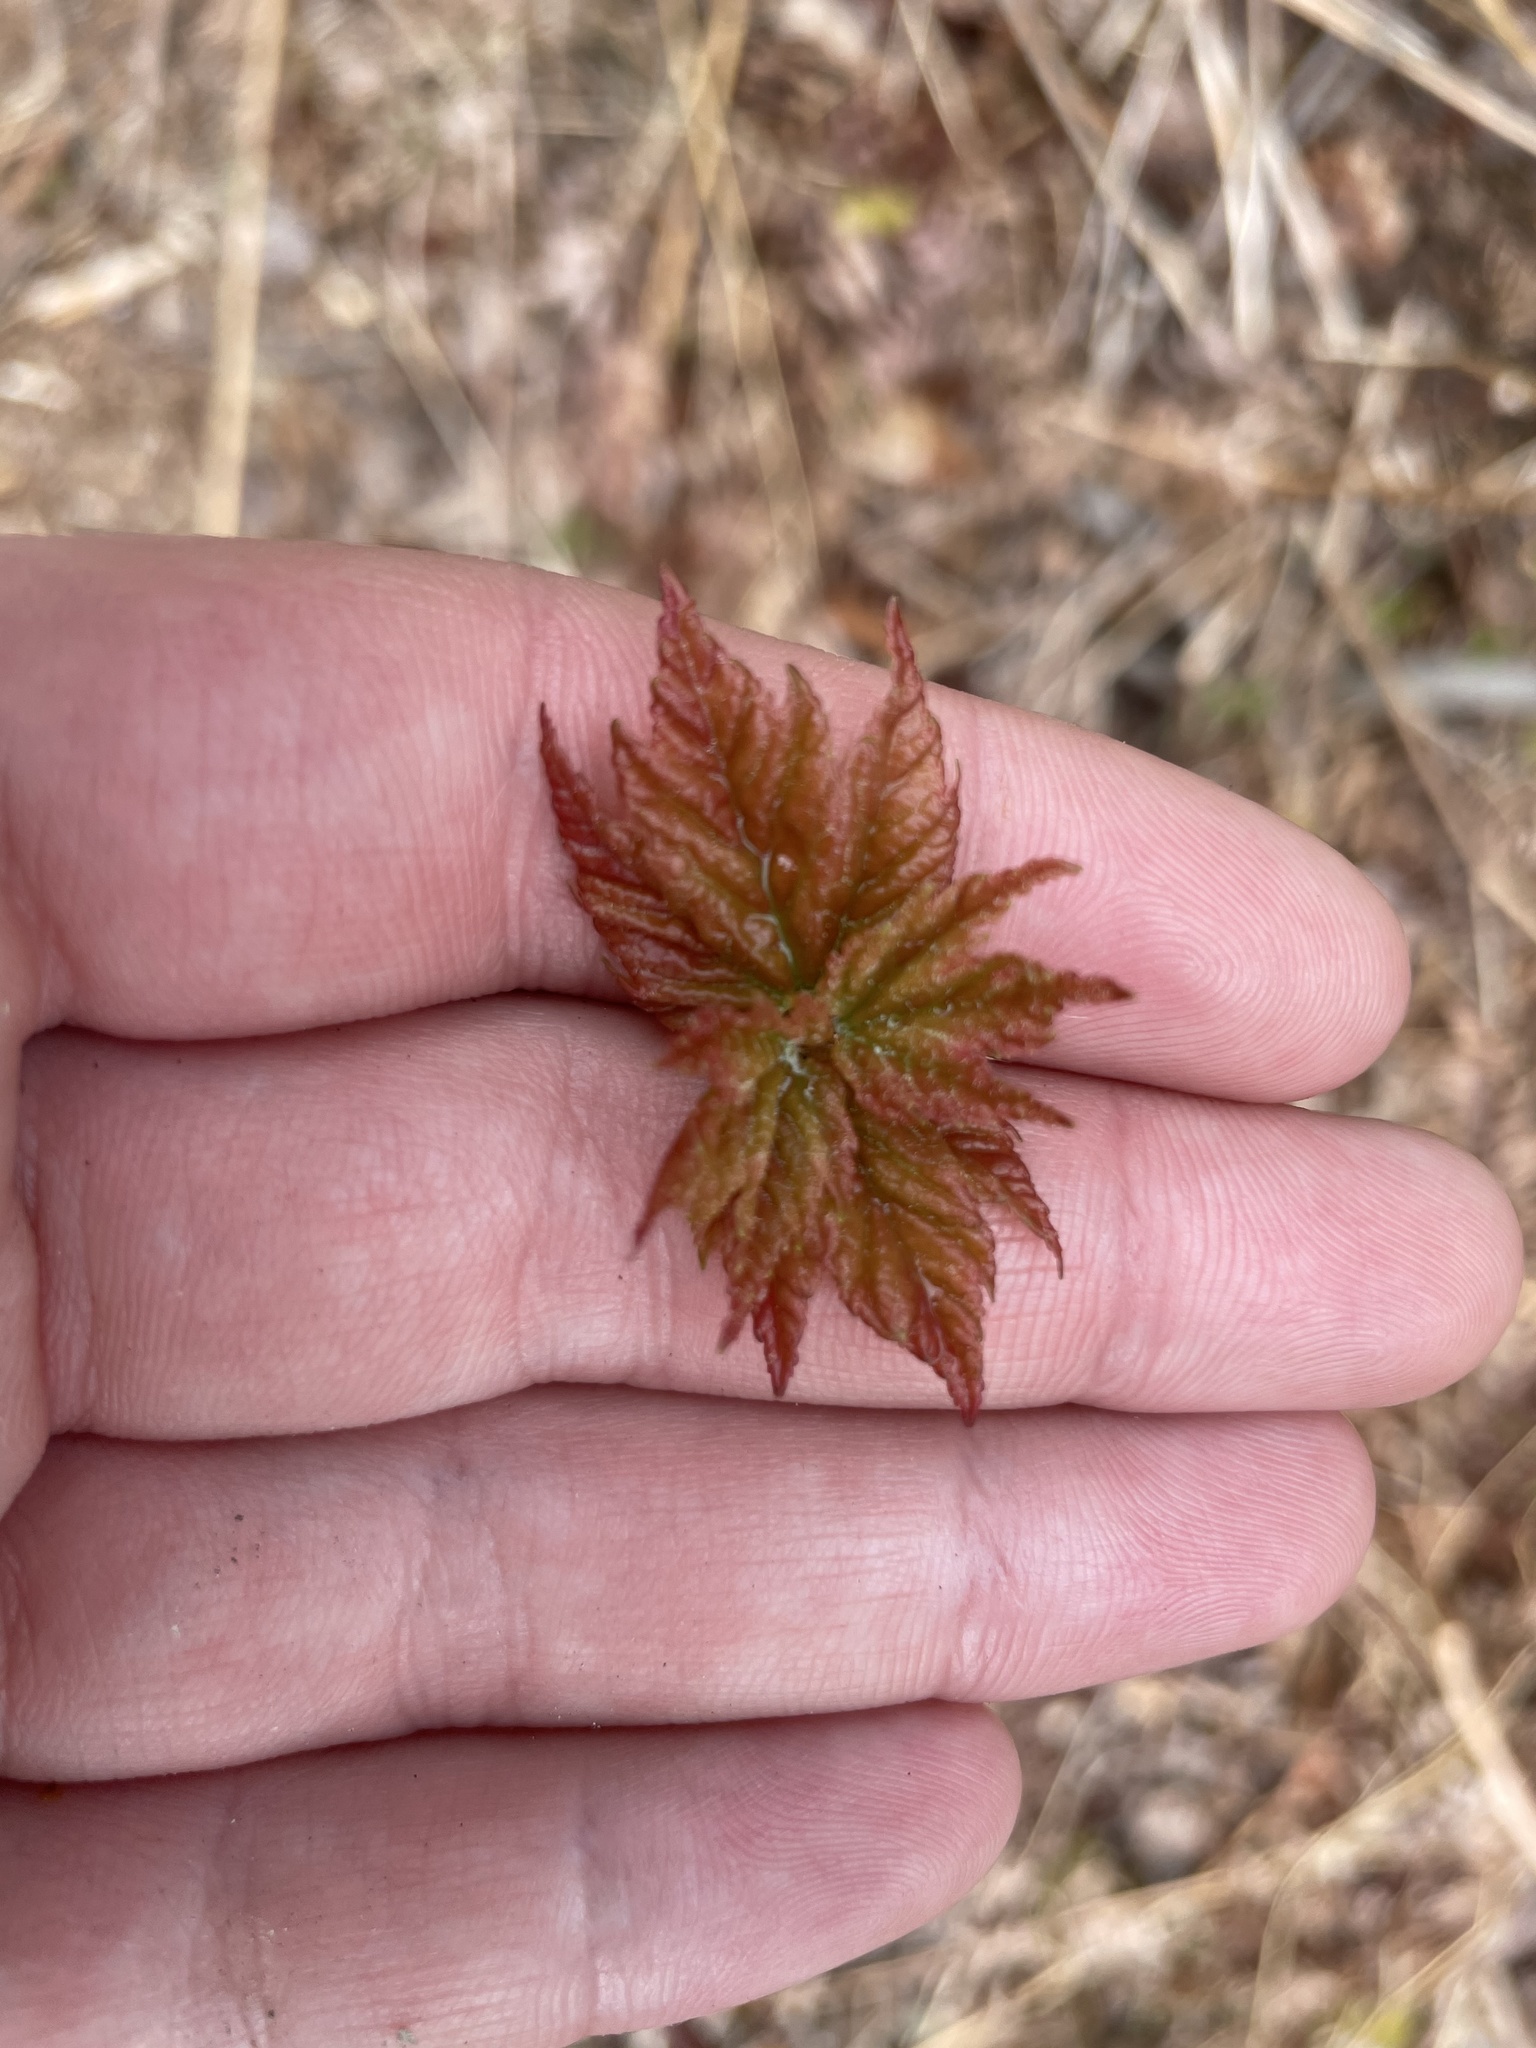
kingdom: Plantae
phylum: Tracheophyta
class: Magnoliopsida
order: Sapindales
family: Sapindaceae
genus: Acer
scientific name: Acer rubrum
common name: Red maple
